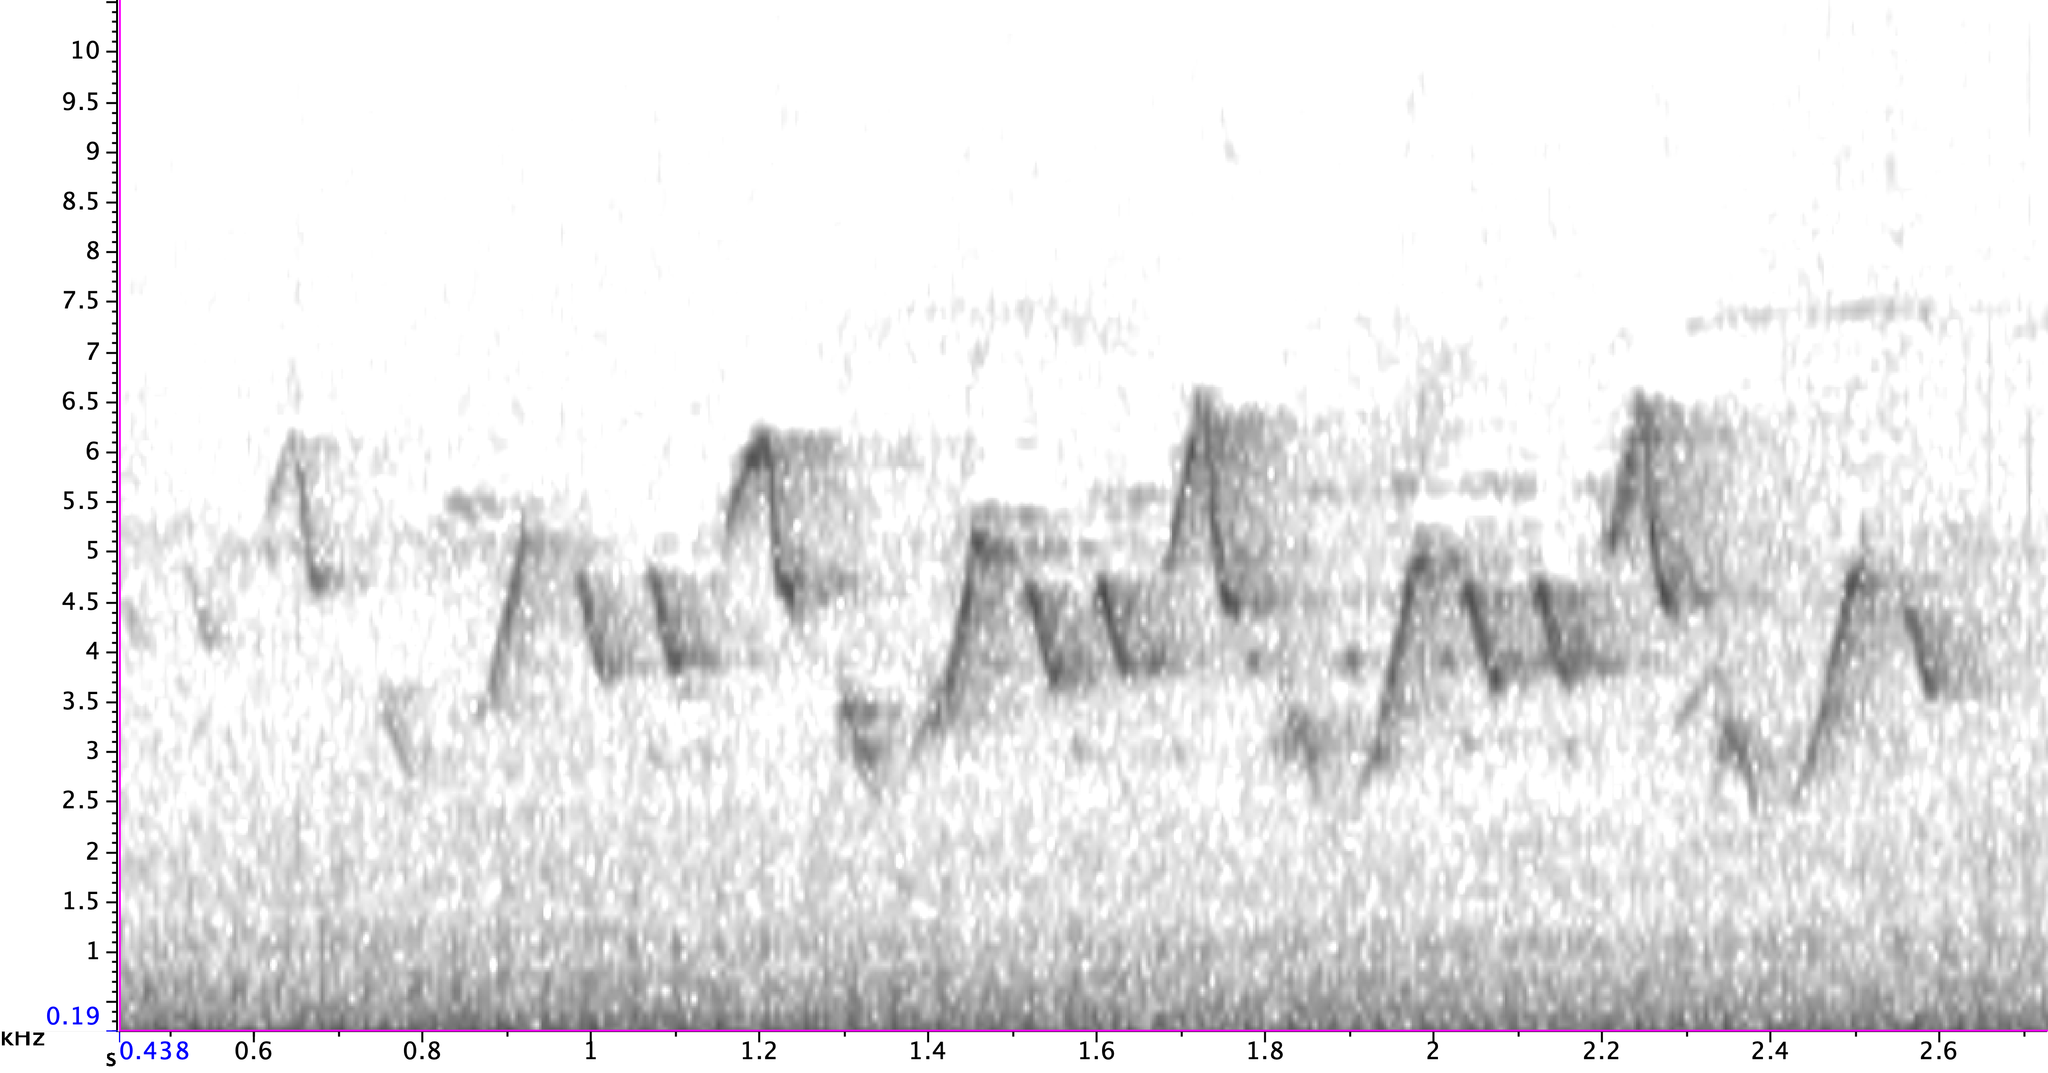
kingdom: Animalia
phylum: Chordata
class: Aves
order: Passeriformes
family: Parulidae
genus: Geothlypis
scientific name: Geothlypis trichas
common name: Common yellowthroat
